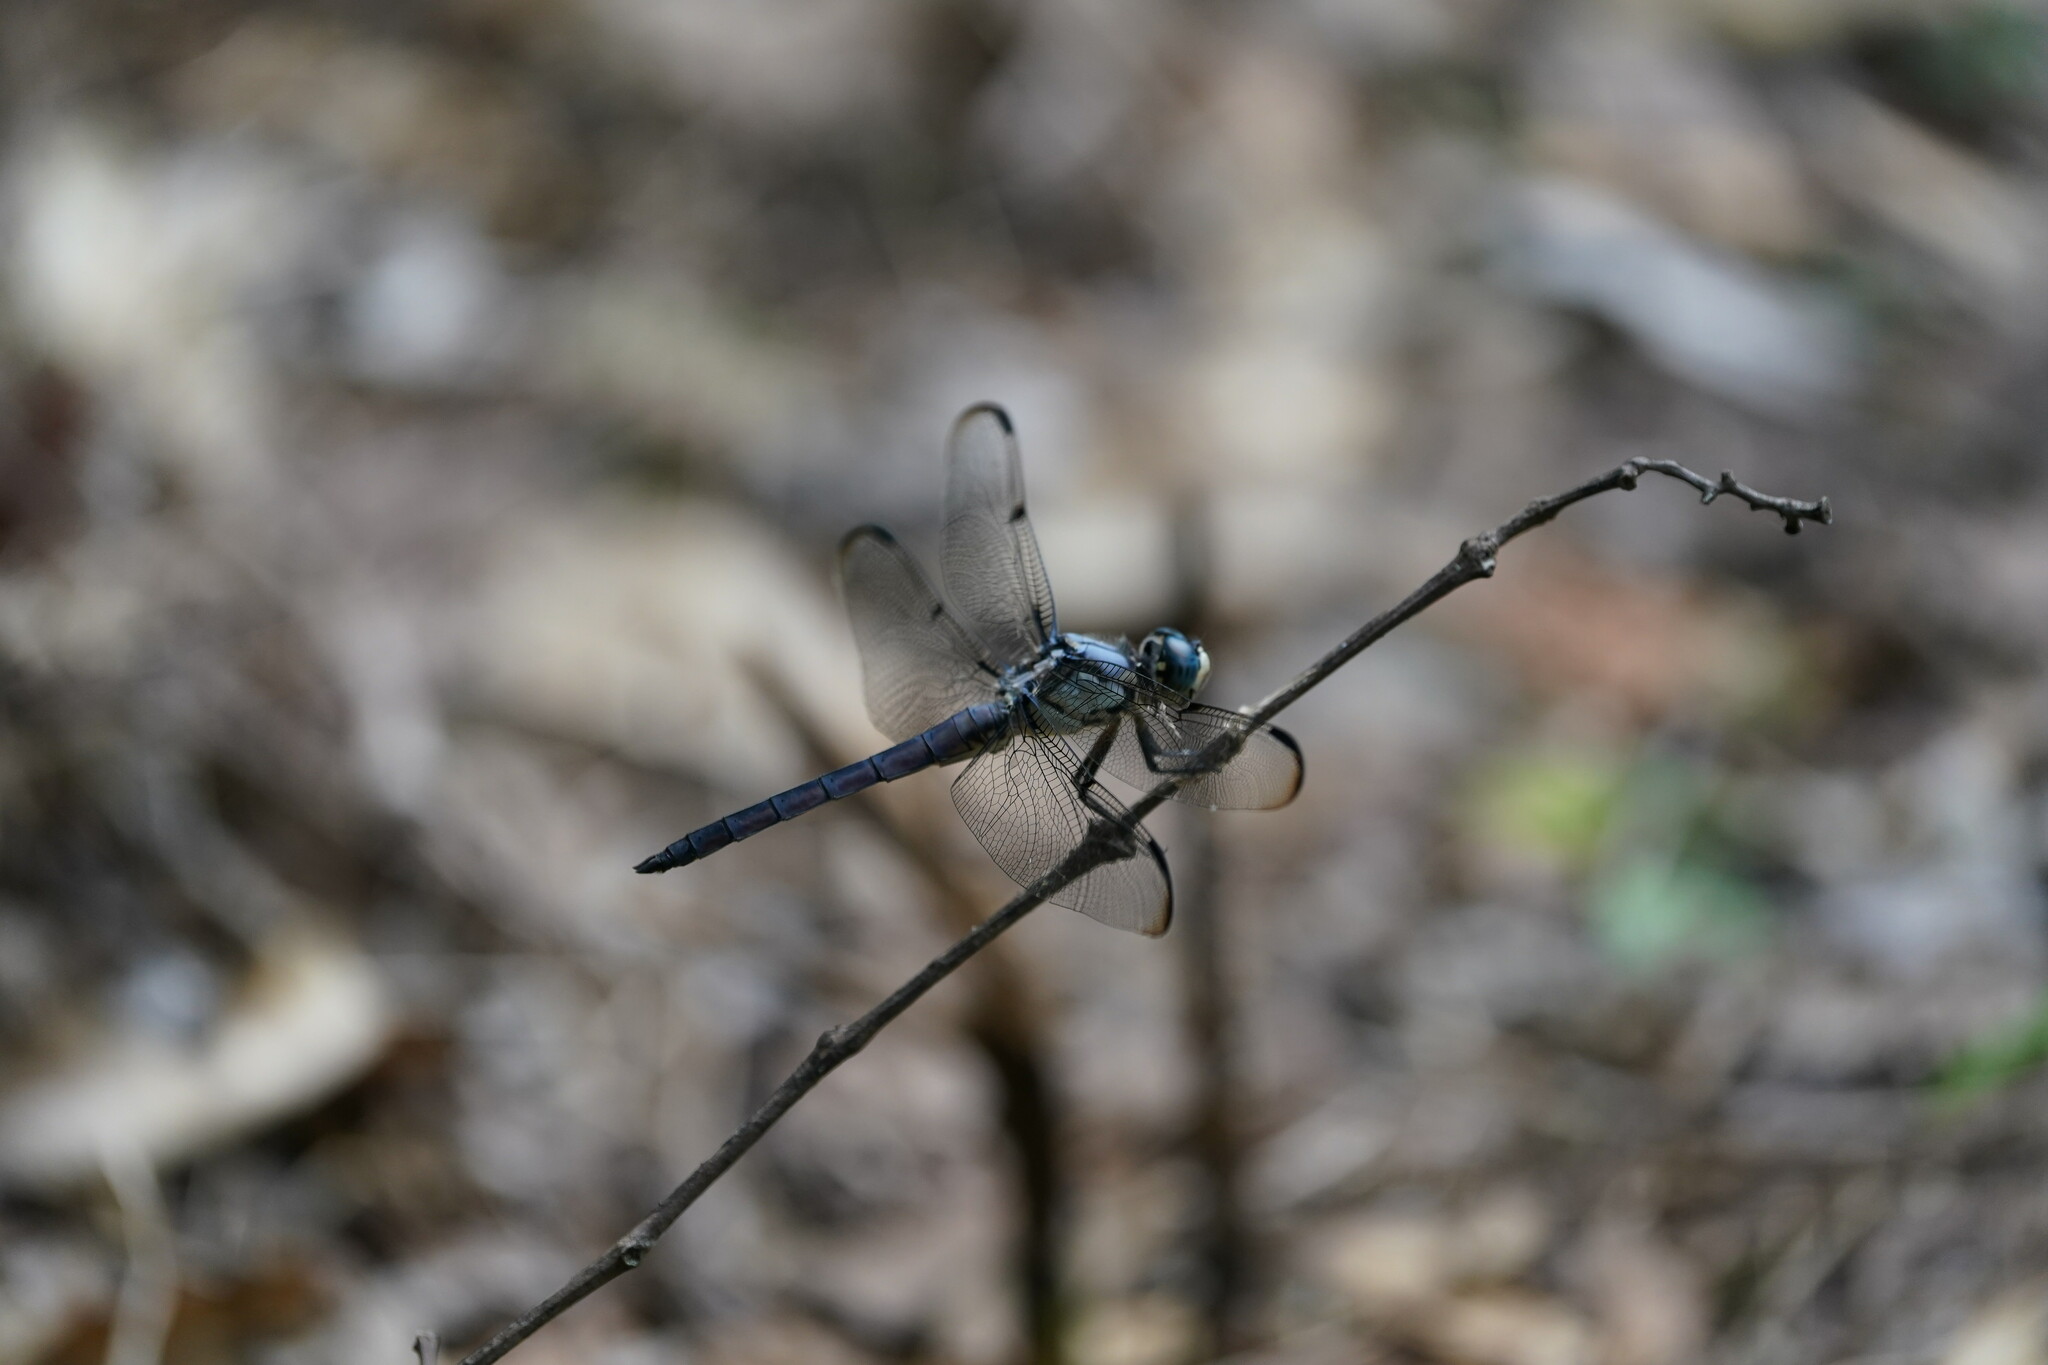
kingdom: Animalia
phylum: Arthropoda
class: Insecta
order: Odonata
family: Libellulidae
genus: Libellula
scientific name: Libellula vibrans
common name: Great blue skimmer
